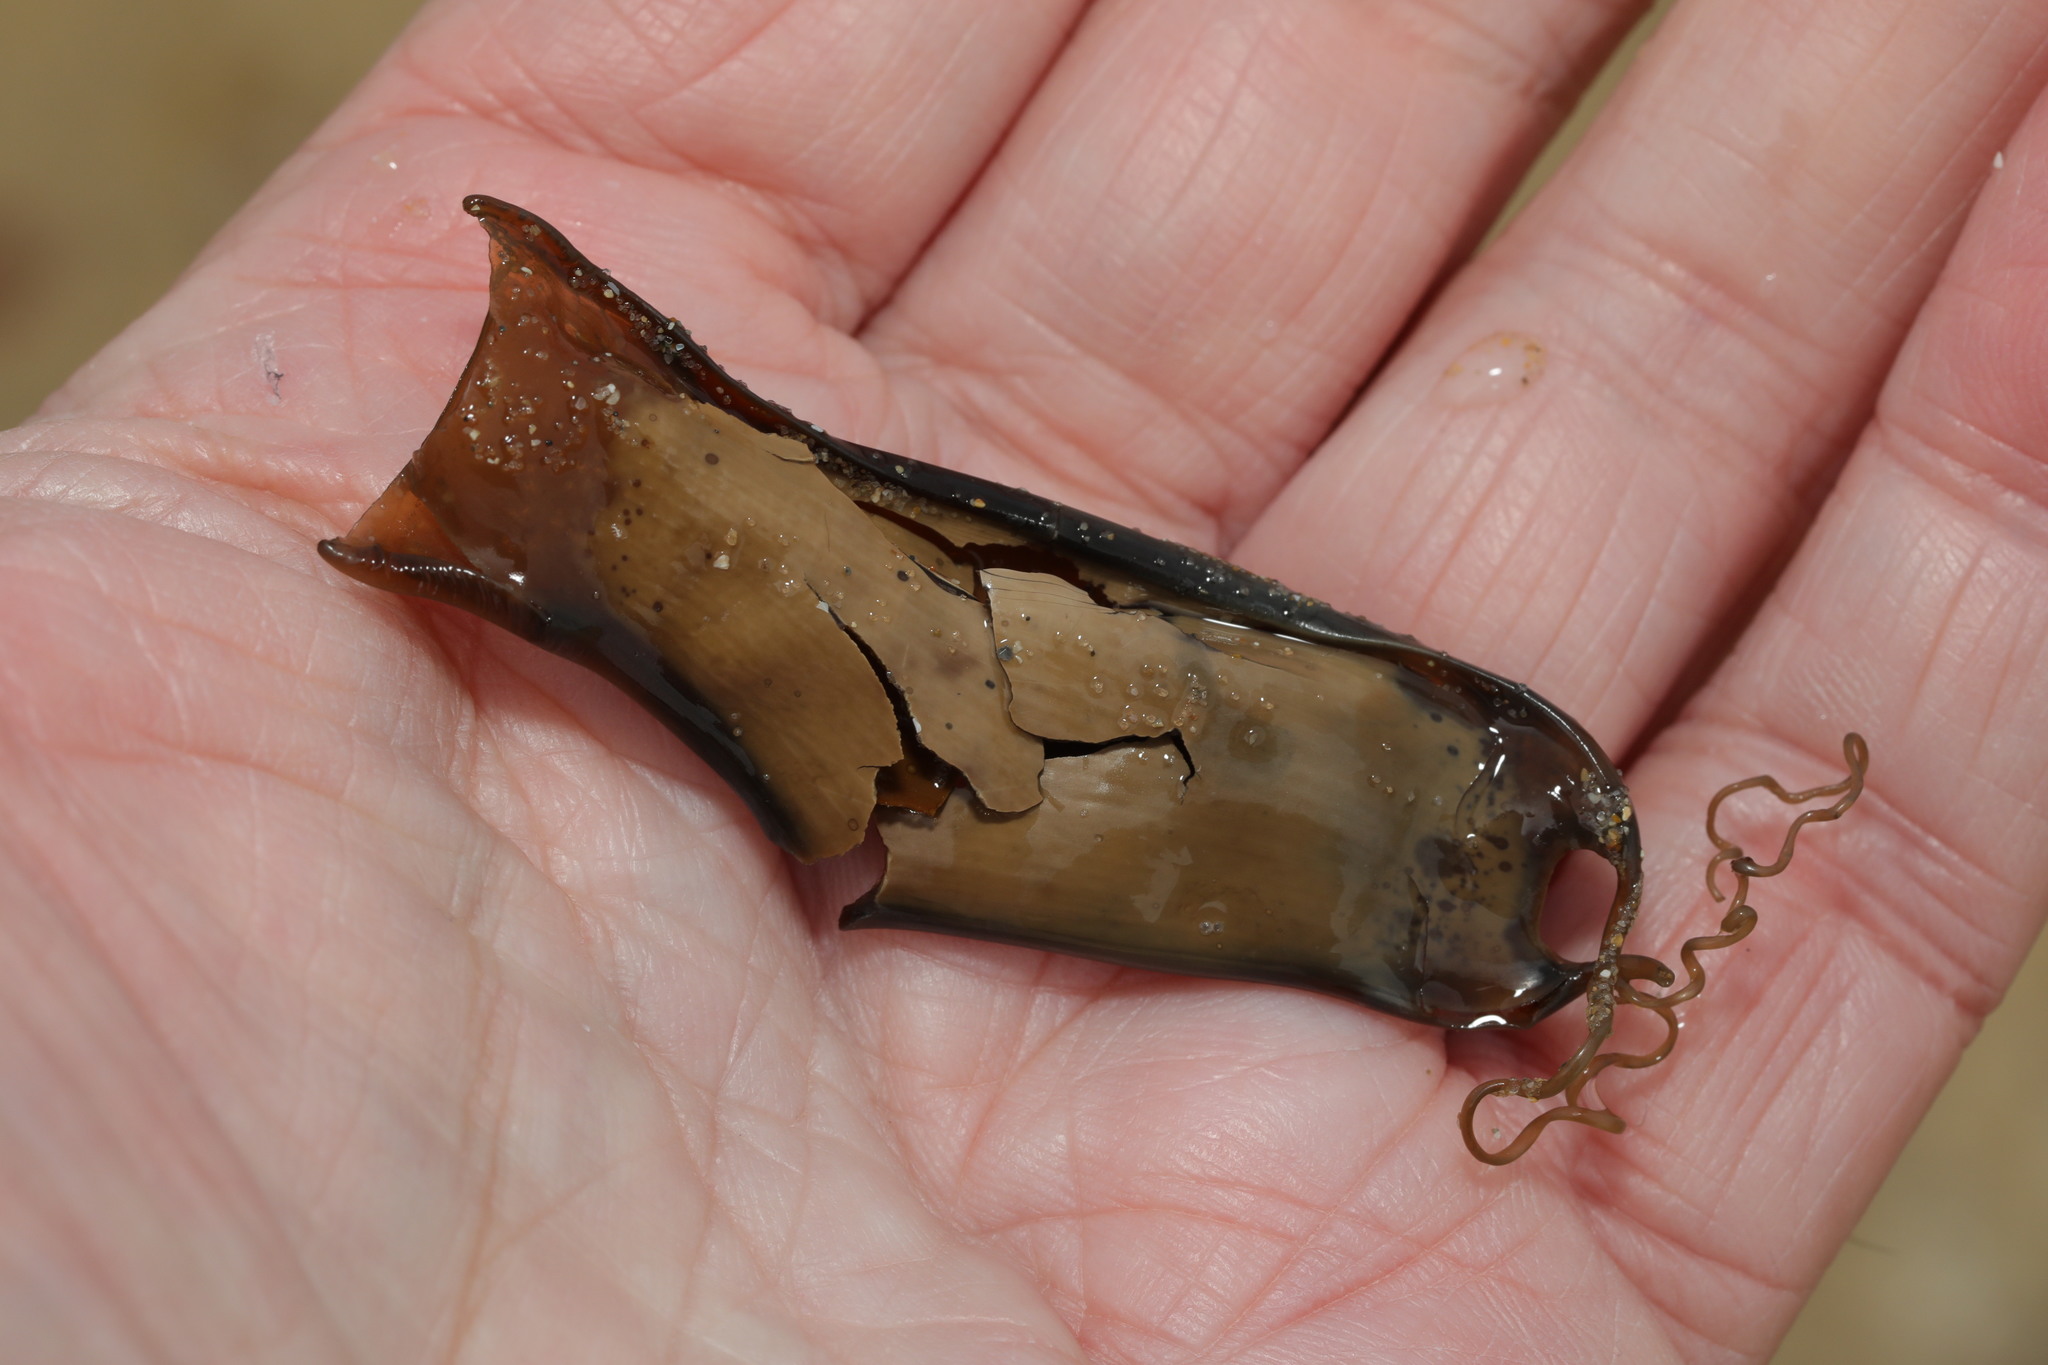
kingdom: Animalia
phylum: Chordata
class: Elasmobranchii
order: Carcharhiniformes
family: Scyliorhinidae
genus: Scyliorhinus
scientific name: Scyliorhinus canicula
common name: Lesser spotted dogfish
